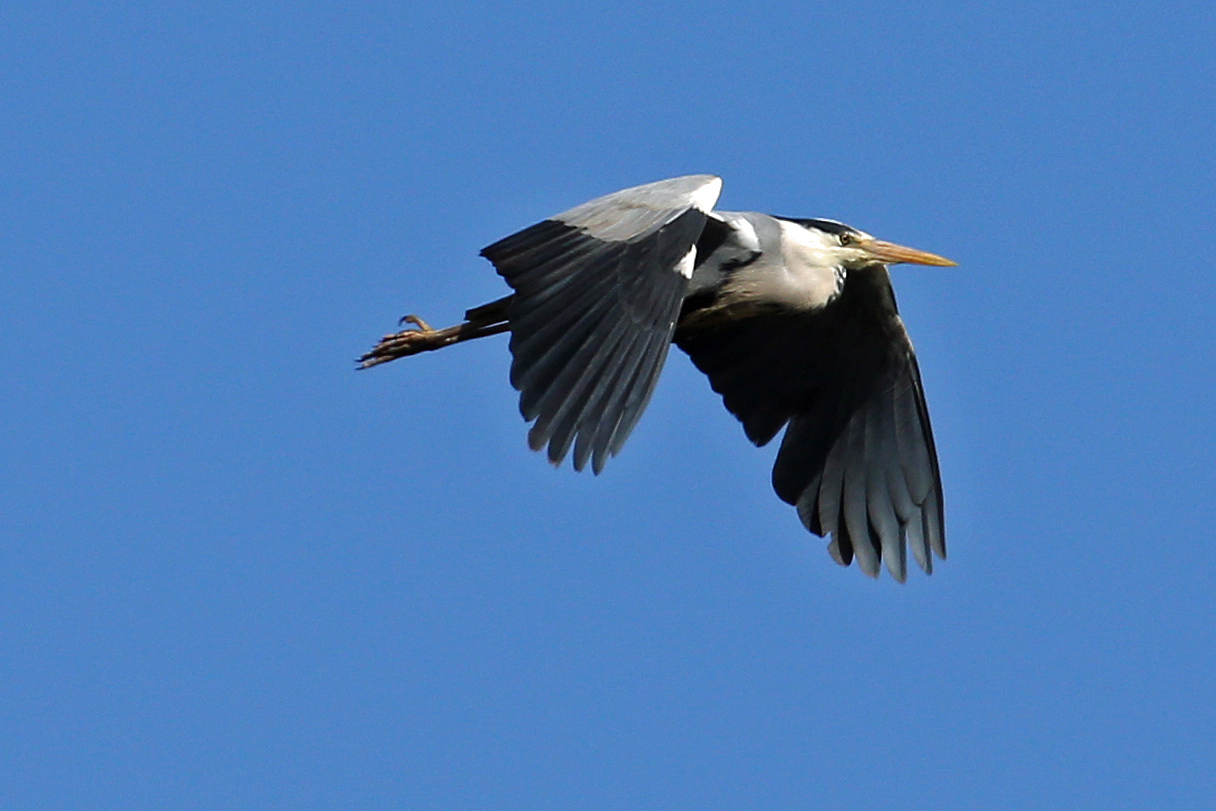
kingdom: Animalia
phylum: Chordata
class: Aves
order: Pelecaniformes
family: Ardeidae
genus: Ardea
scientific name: Ardea cinerea
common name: Grey heron
